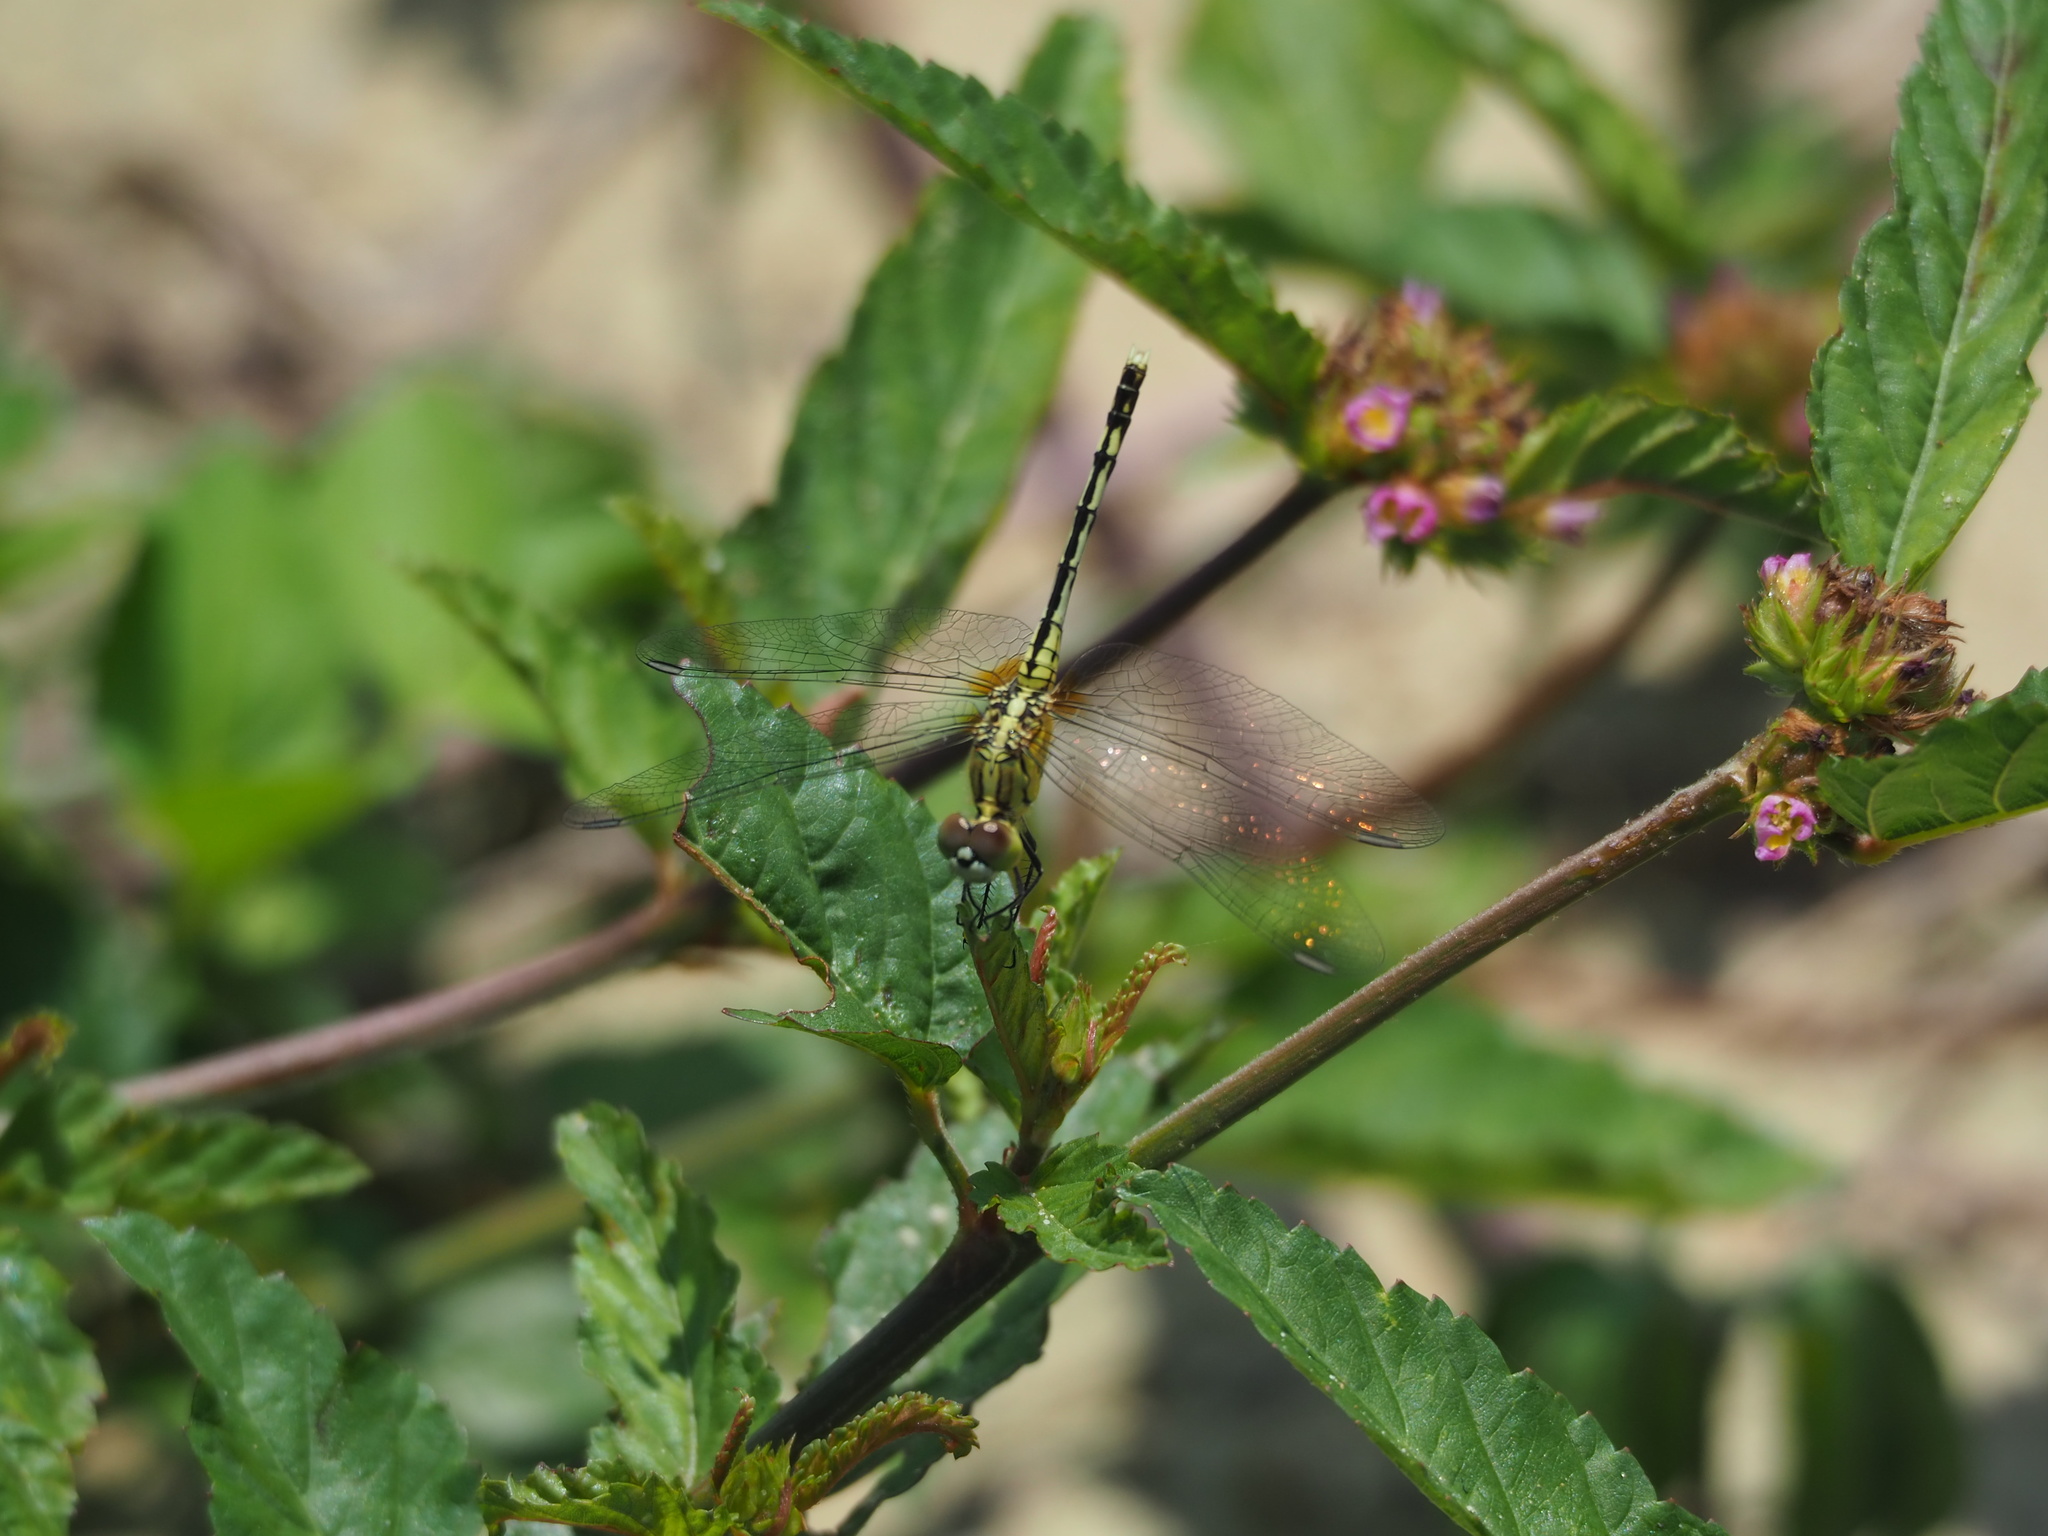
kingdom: Animalia
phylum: Arthropoda
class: Insecta
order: Odonata
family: Libellulidae
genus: Diplacodes
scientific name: Diplacodes trivialis
